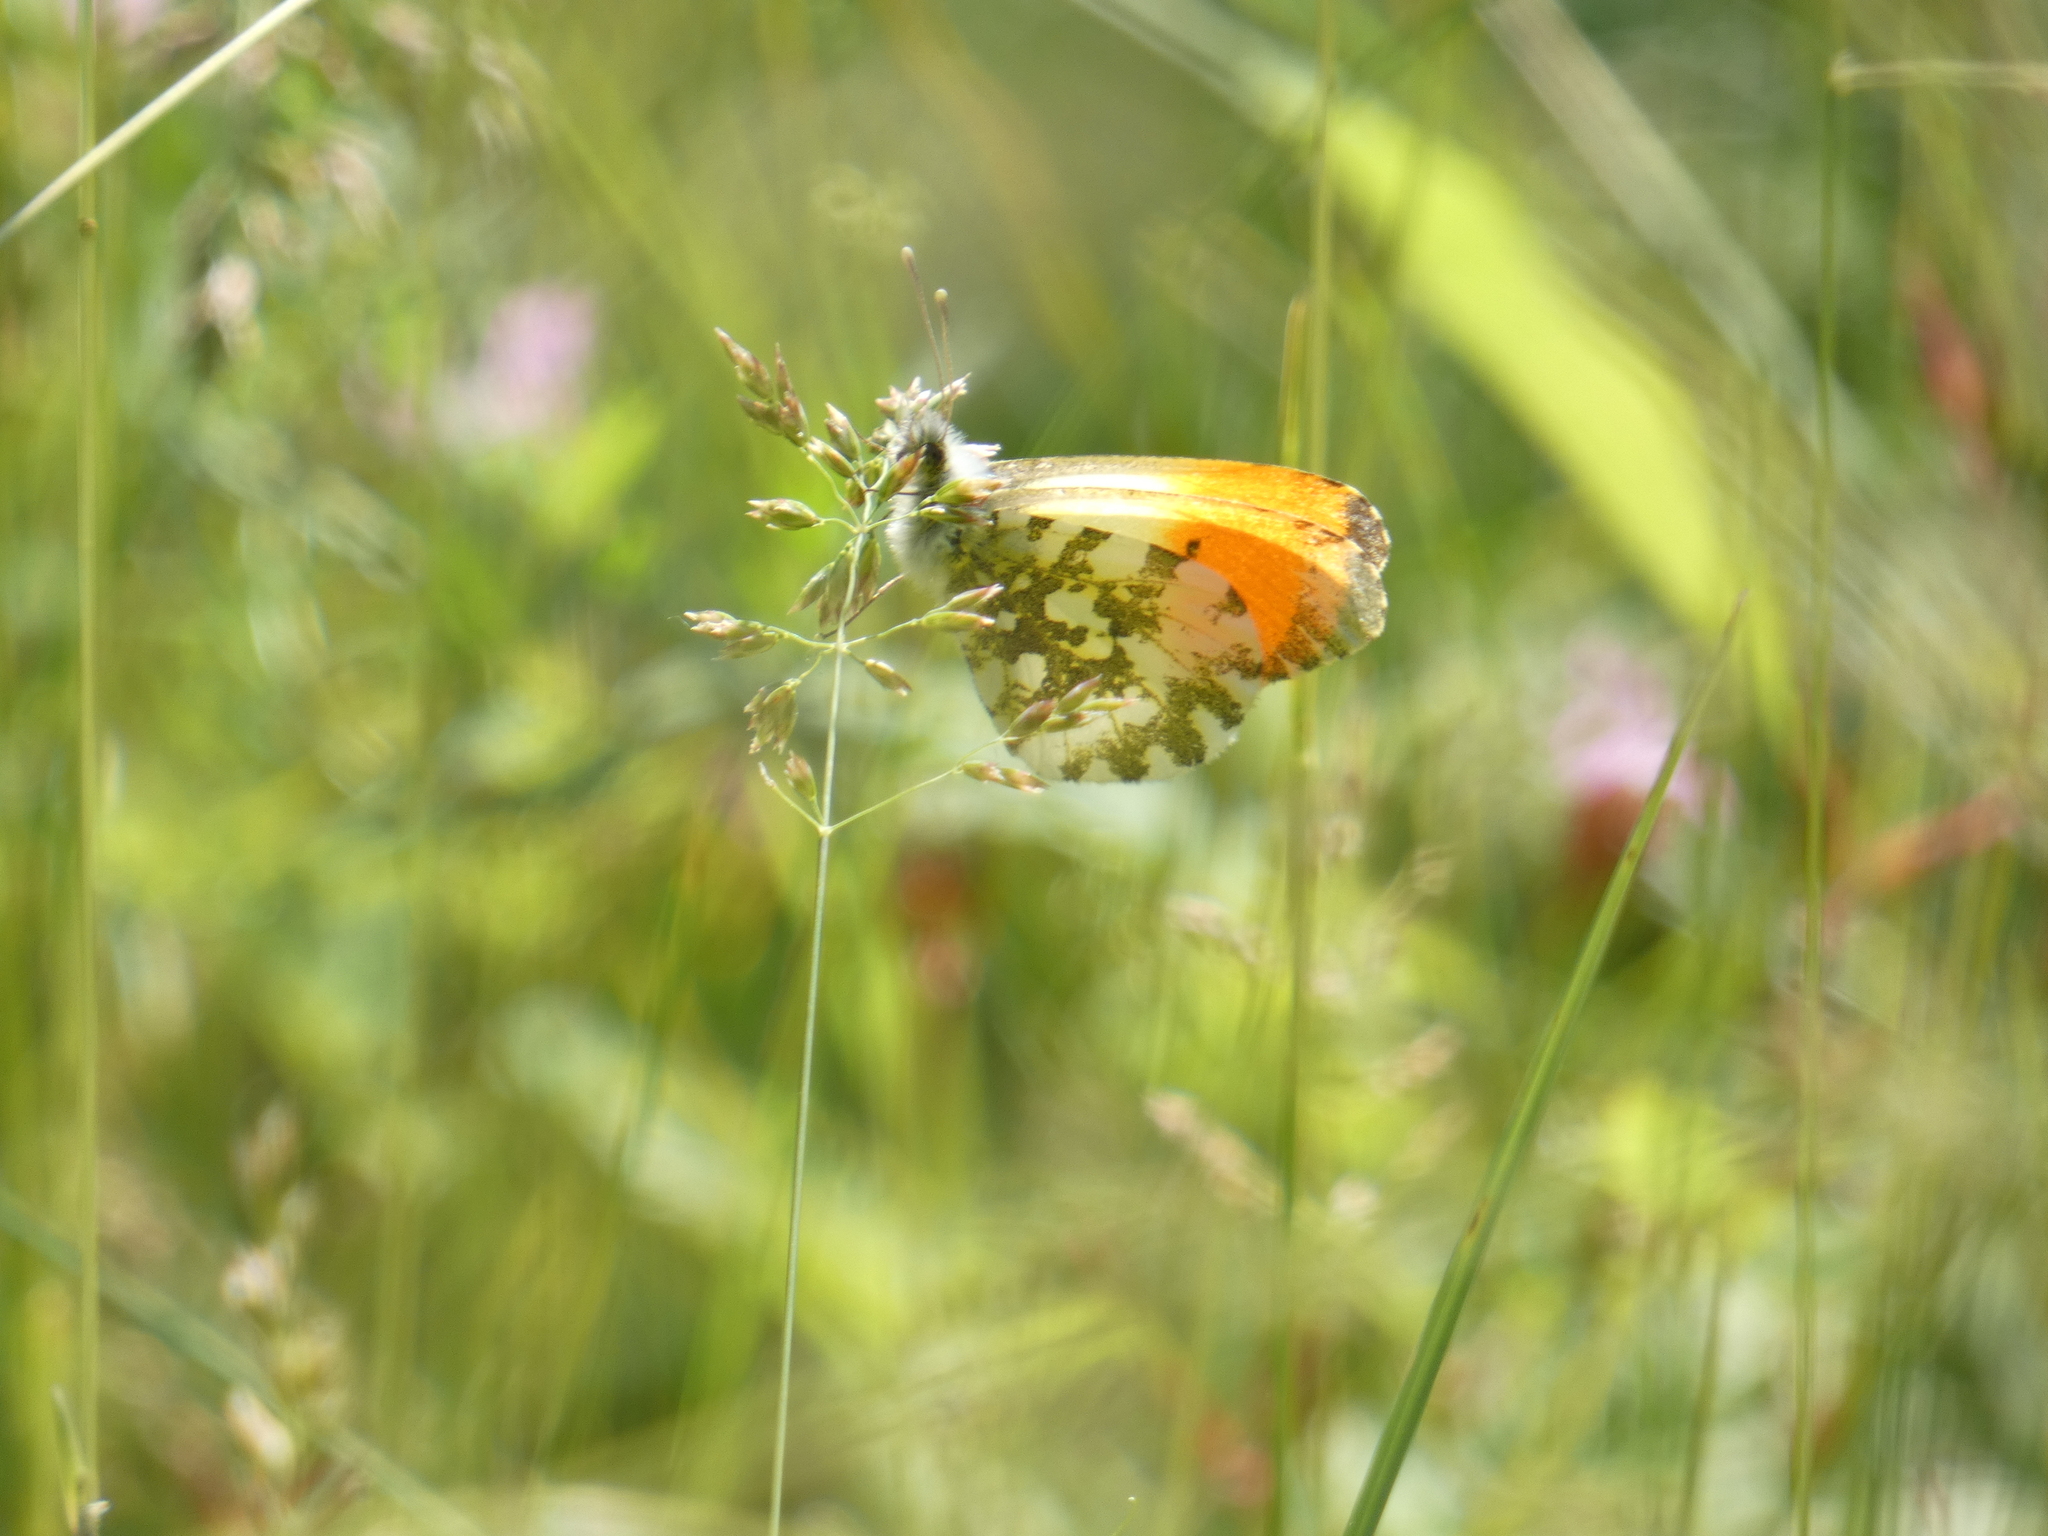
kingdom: Animalia
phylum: Arthropoda
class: Insecta
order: Lepidoptera
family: Pieridae
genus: Anthocharis
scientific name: Anthocharis cardamines
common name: Orange-tip
